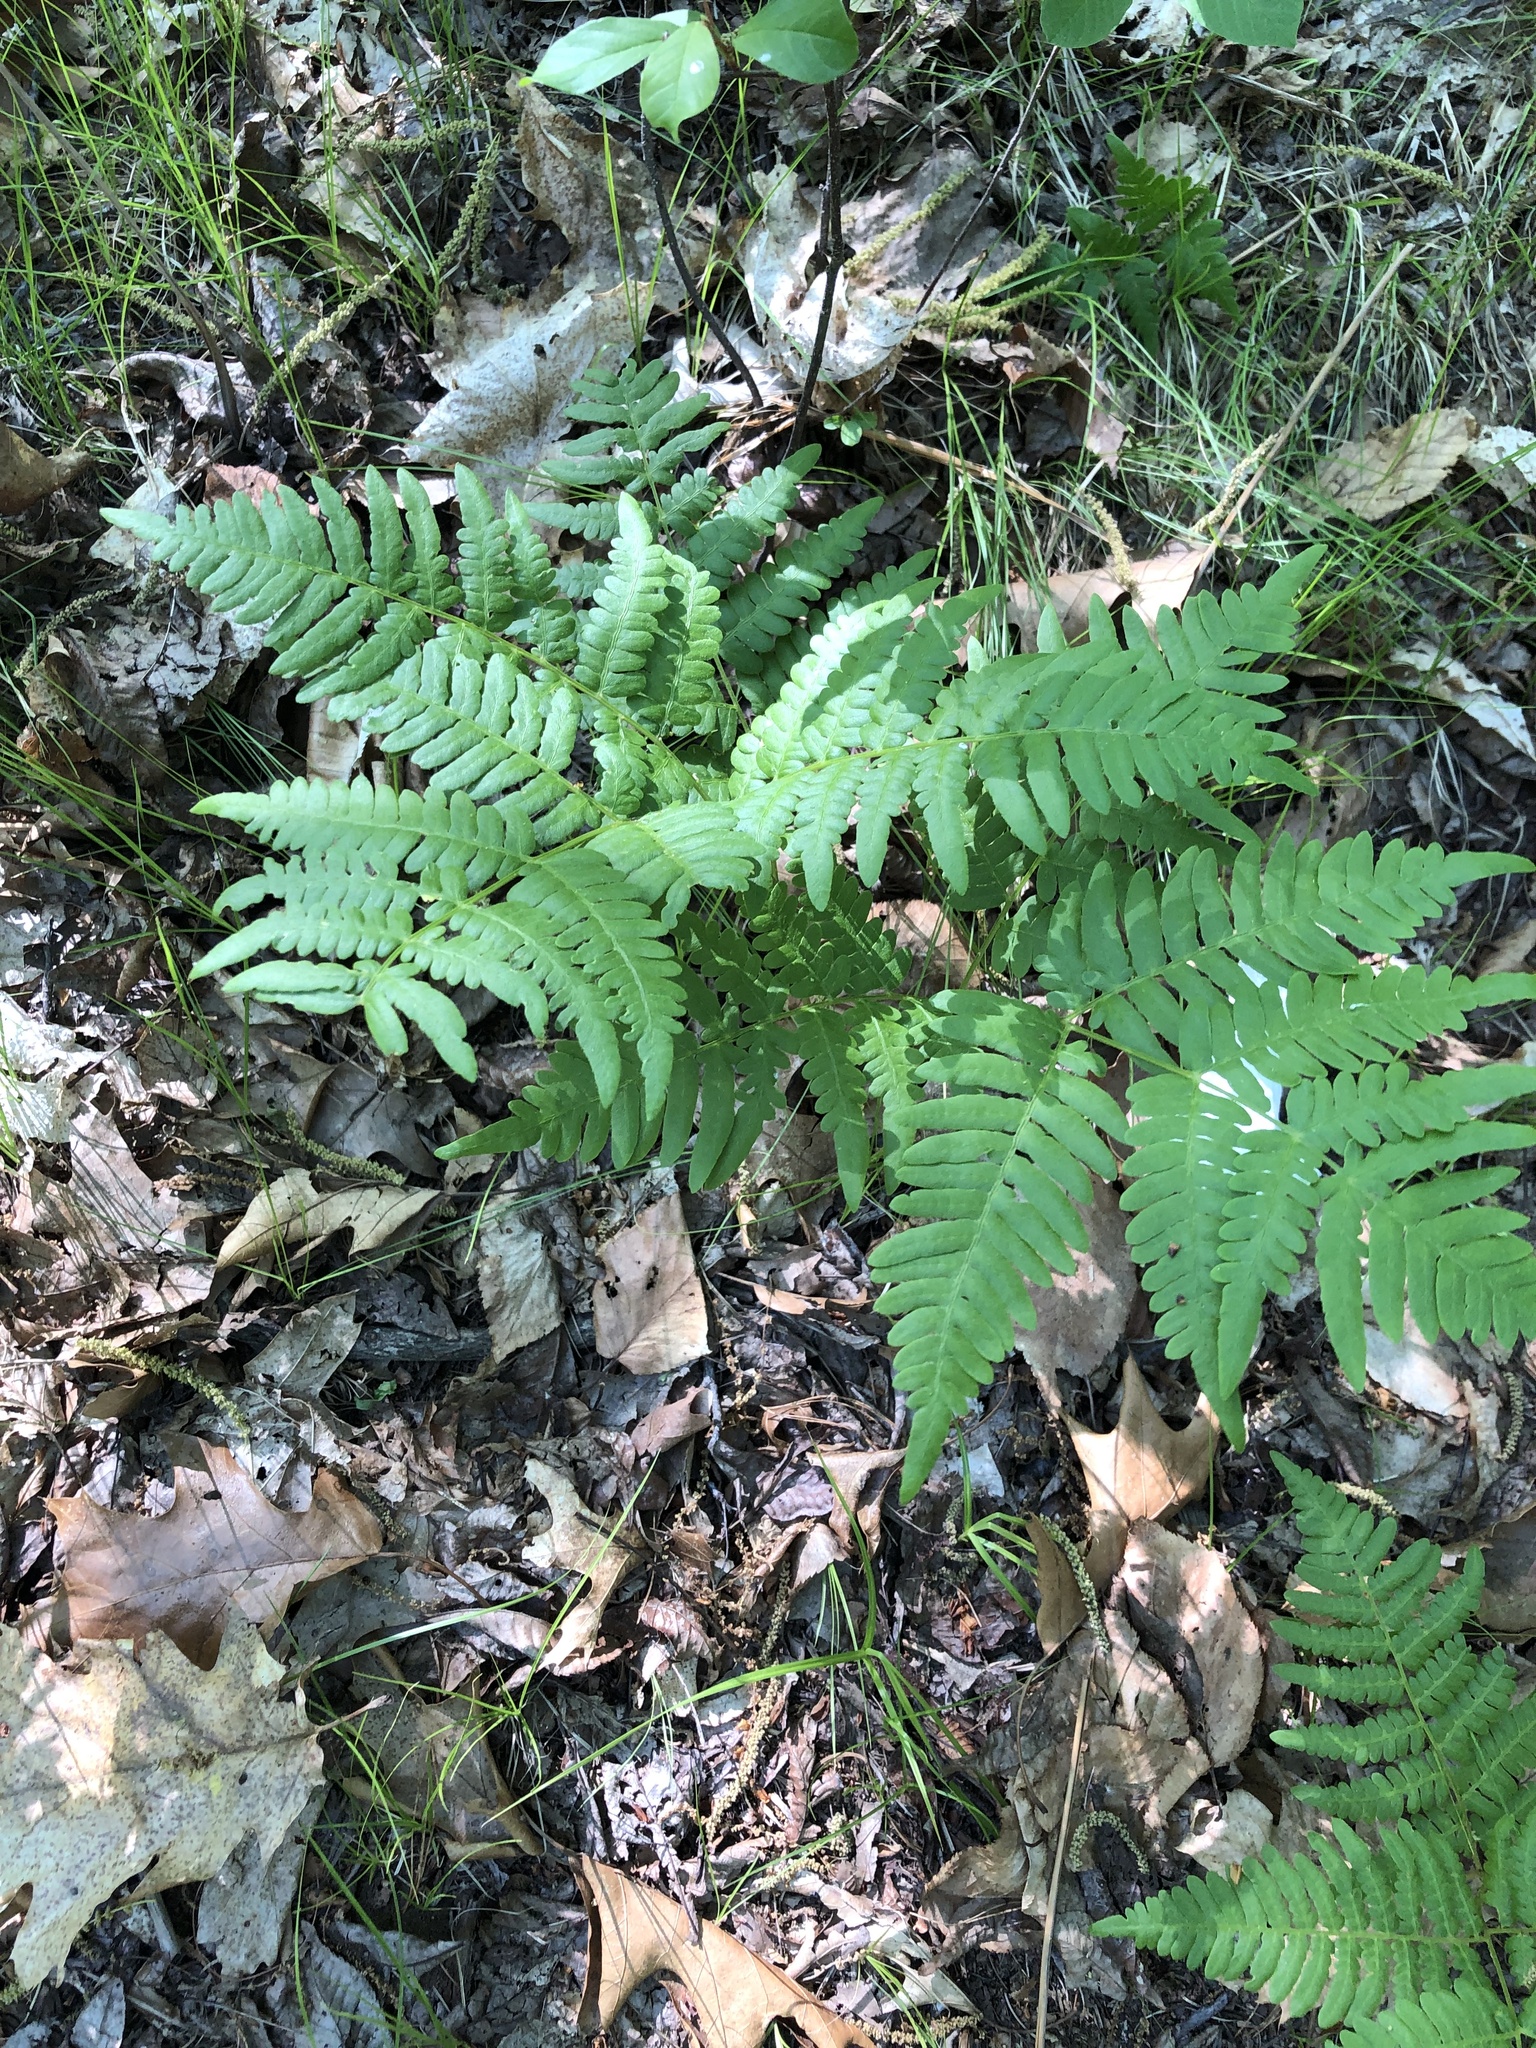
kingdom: Plantae
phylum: Tracheophyta
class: Polypodiopsida
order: Polypodiales
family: Dennstaedtiaceae
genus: Pteridium
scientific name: Pteridium aquilinum
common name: Bracken
